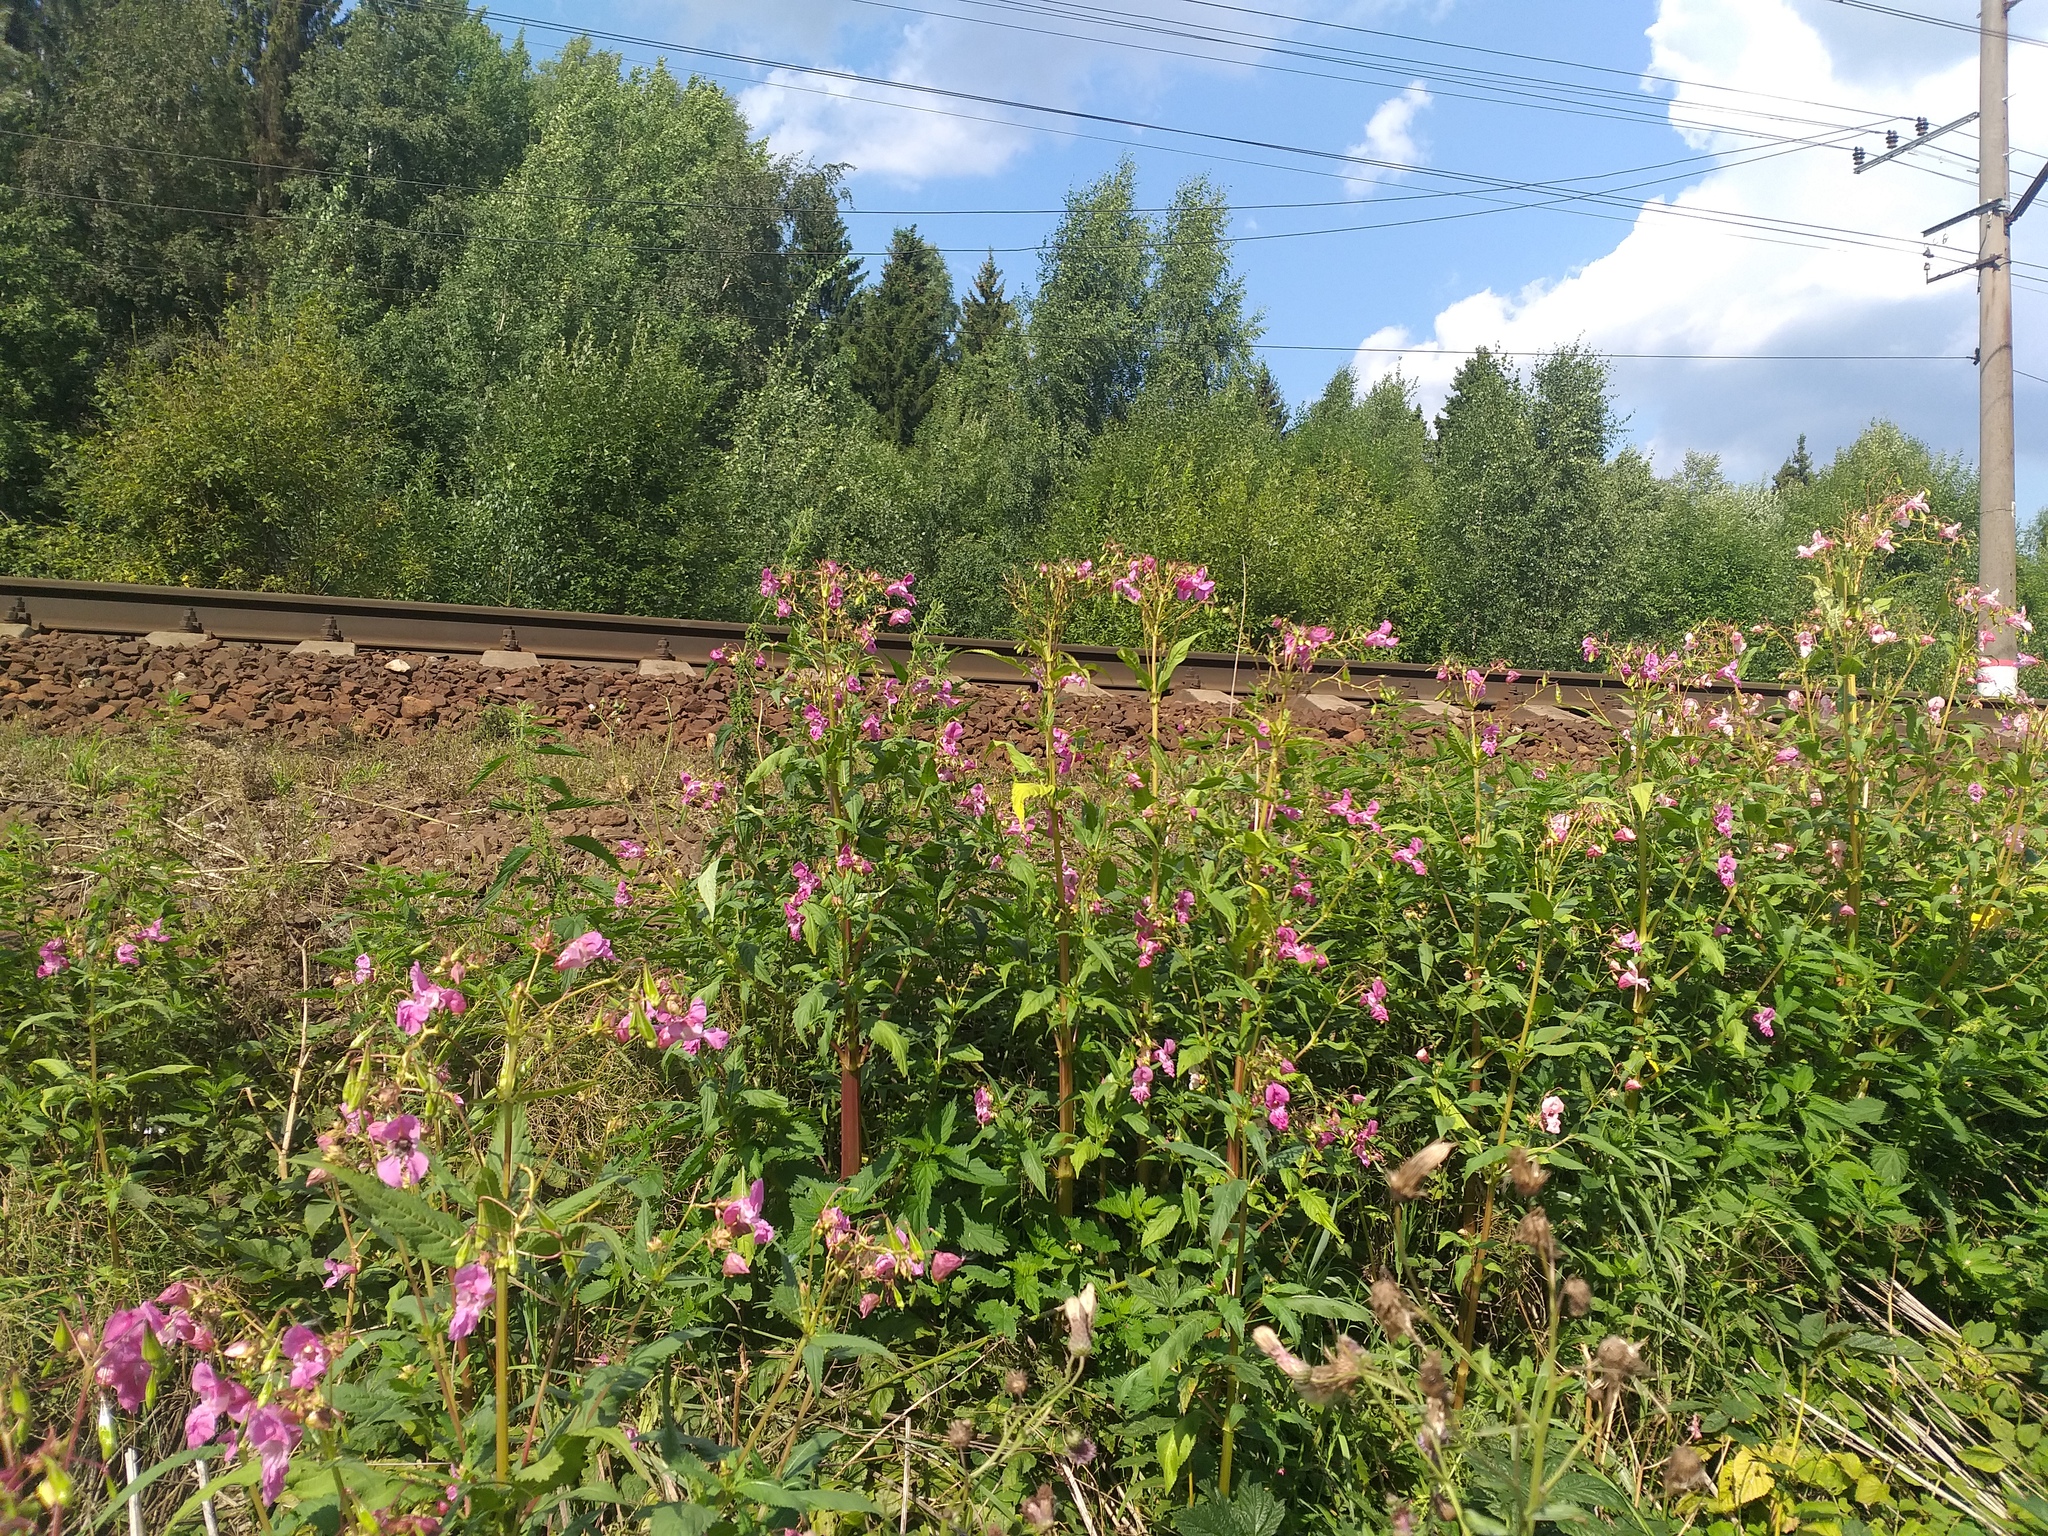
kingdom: Plantae
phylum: Tracheophyta
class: Magnoliopsida
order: Ericales
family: Balsaminaceae
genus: Impatiens
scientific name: Impatiens glandulifera
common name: Himalayan balsam
